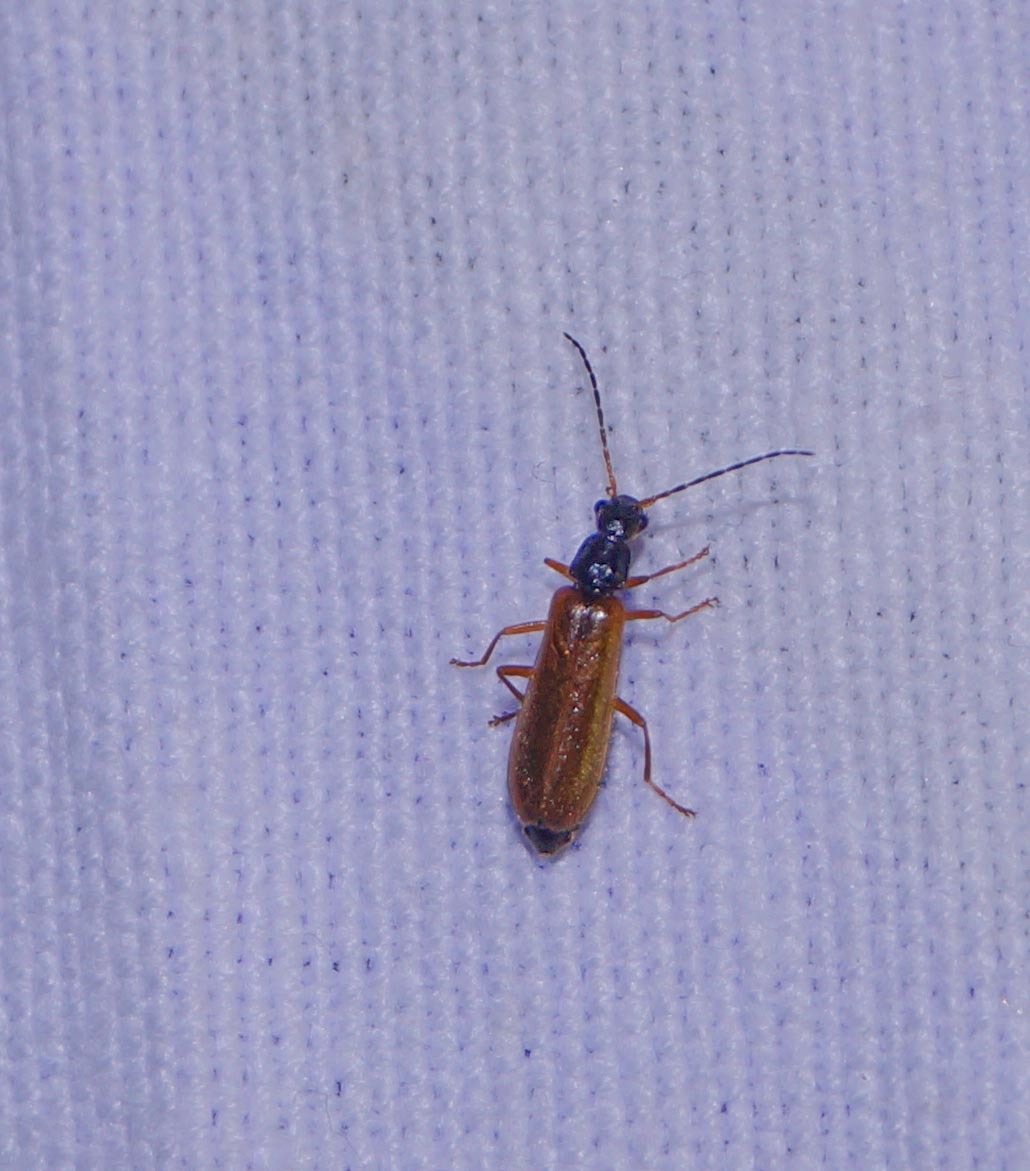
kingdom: Animalia
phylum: Arthropoda
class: Insecta
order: Coleoptera
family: Cantharidae
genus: Rhagonycha
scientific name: Rhagonycha lignosa
